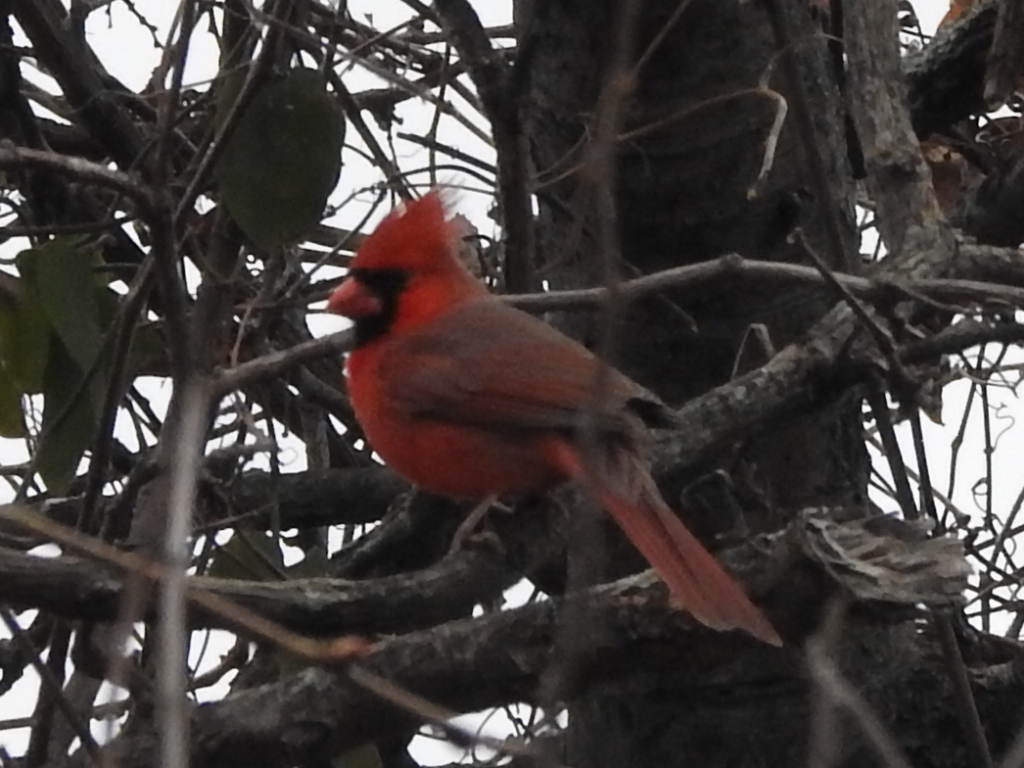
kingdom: Animalia
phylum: Chordata
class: Aves
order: Passeriformes
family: Cardinalidae
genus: Cardinalis
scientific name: Cardinalis cardinalis
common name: Northern cardinal
